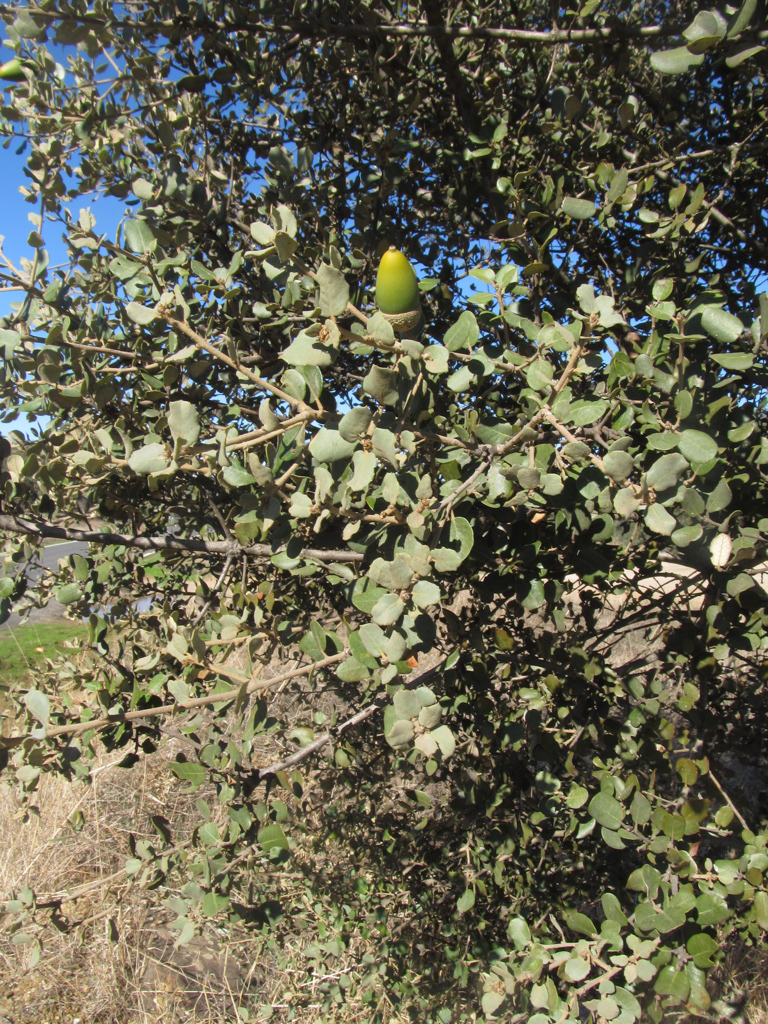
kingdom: Plantae
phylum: Tracheophyta
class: Magnoliopsida
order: Fagales
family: Fagaceae
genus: Quercus
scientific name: Quercus rotundifolia
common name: Holm oak
